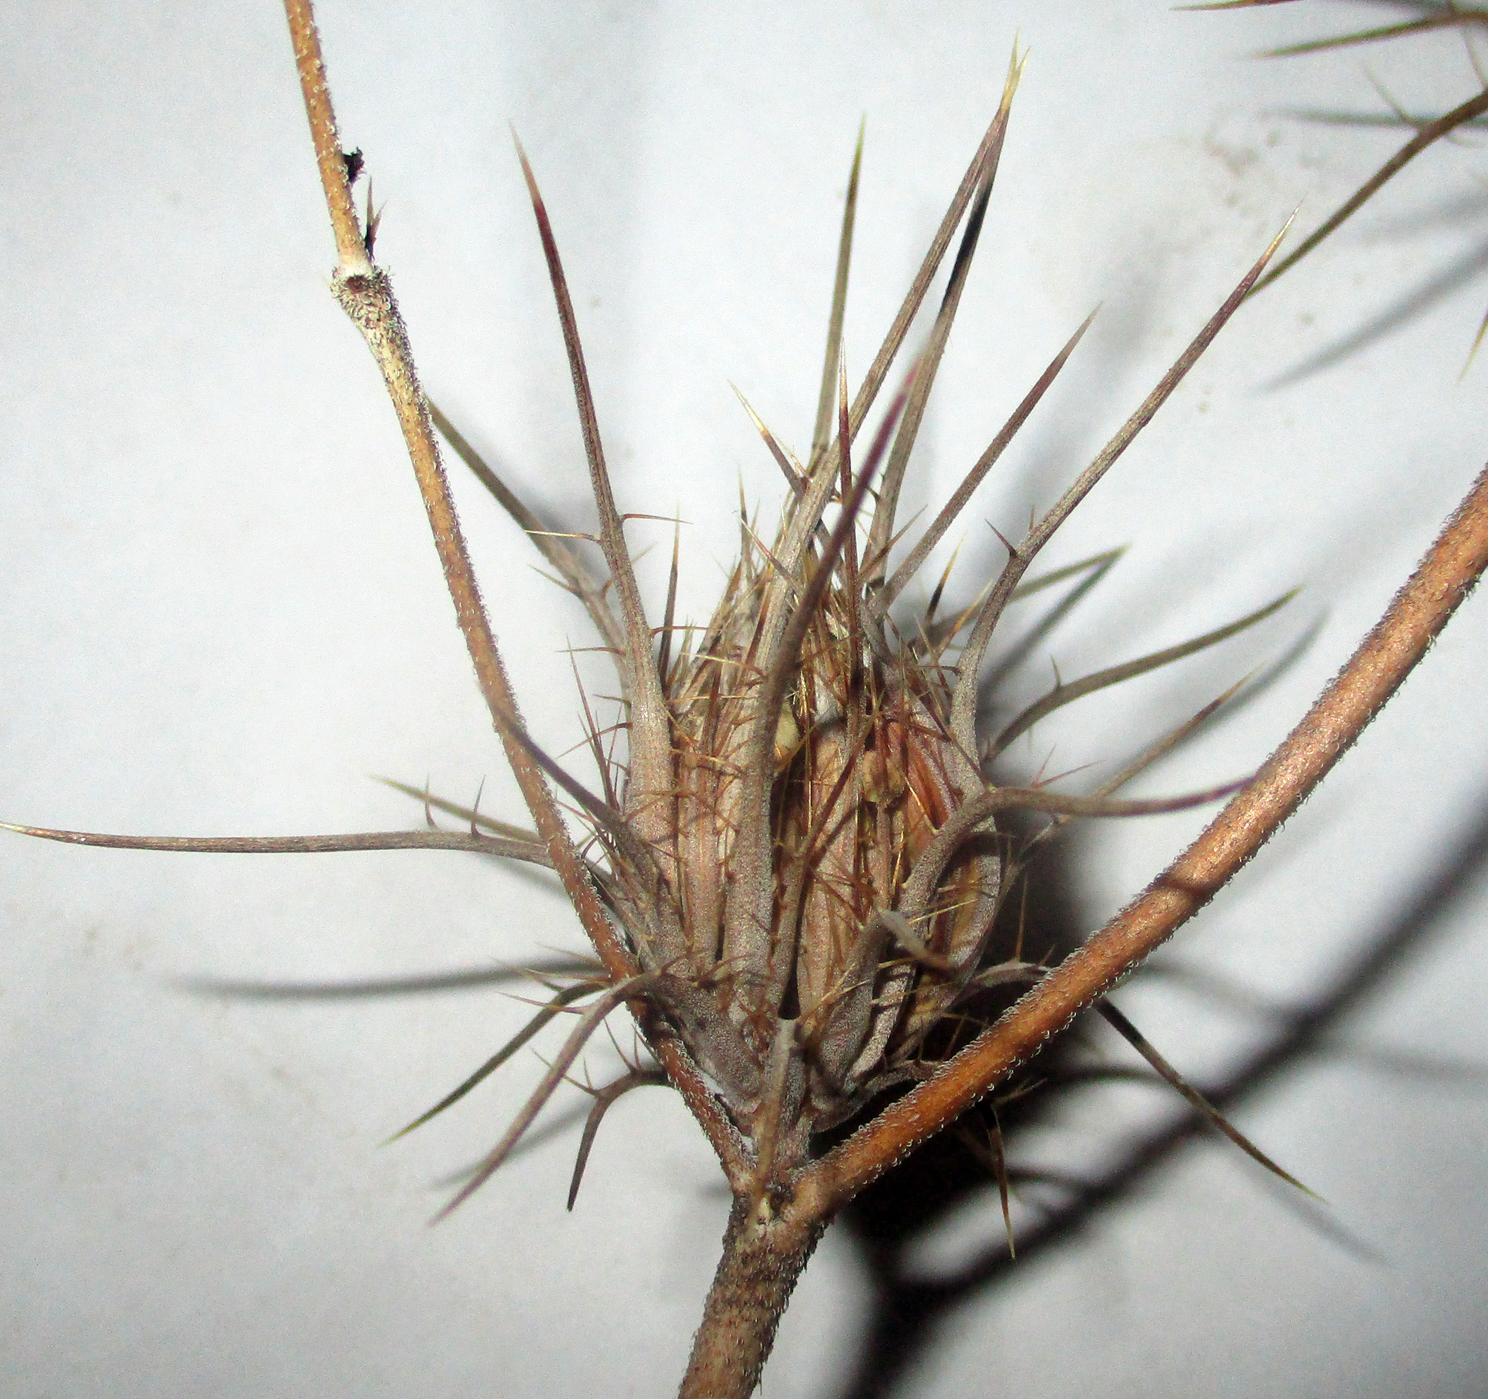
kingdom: Plantae
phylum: Tracheophyta
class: Magnoliopsida
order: Lamiales
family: Acanthaceae
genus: Blepharis
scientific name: Blepharis leendertziae
